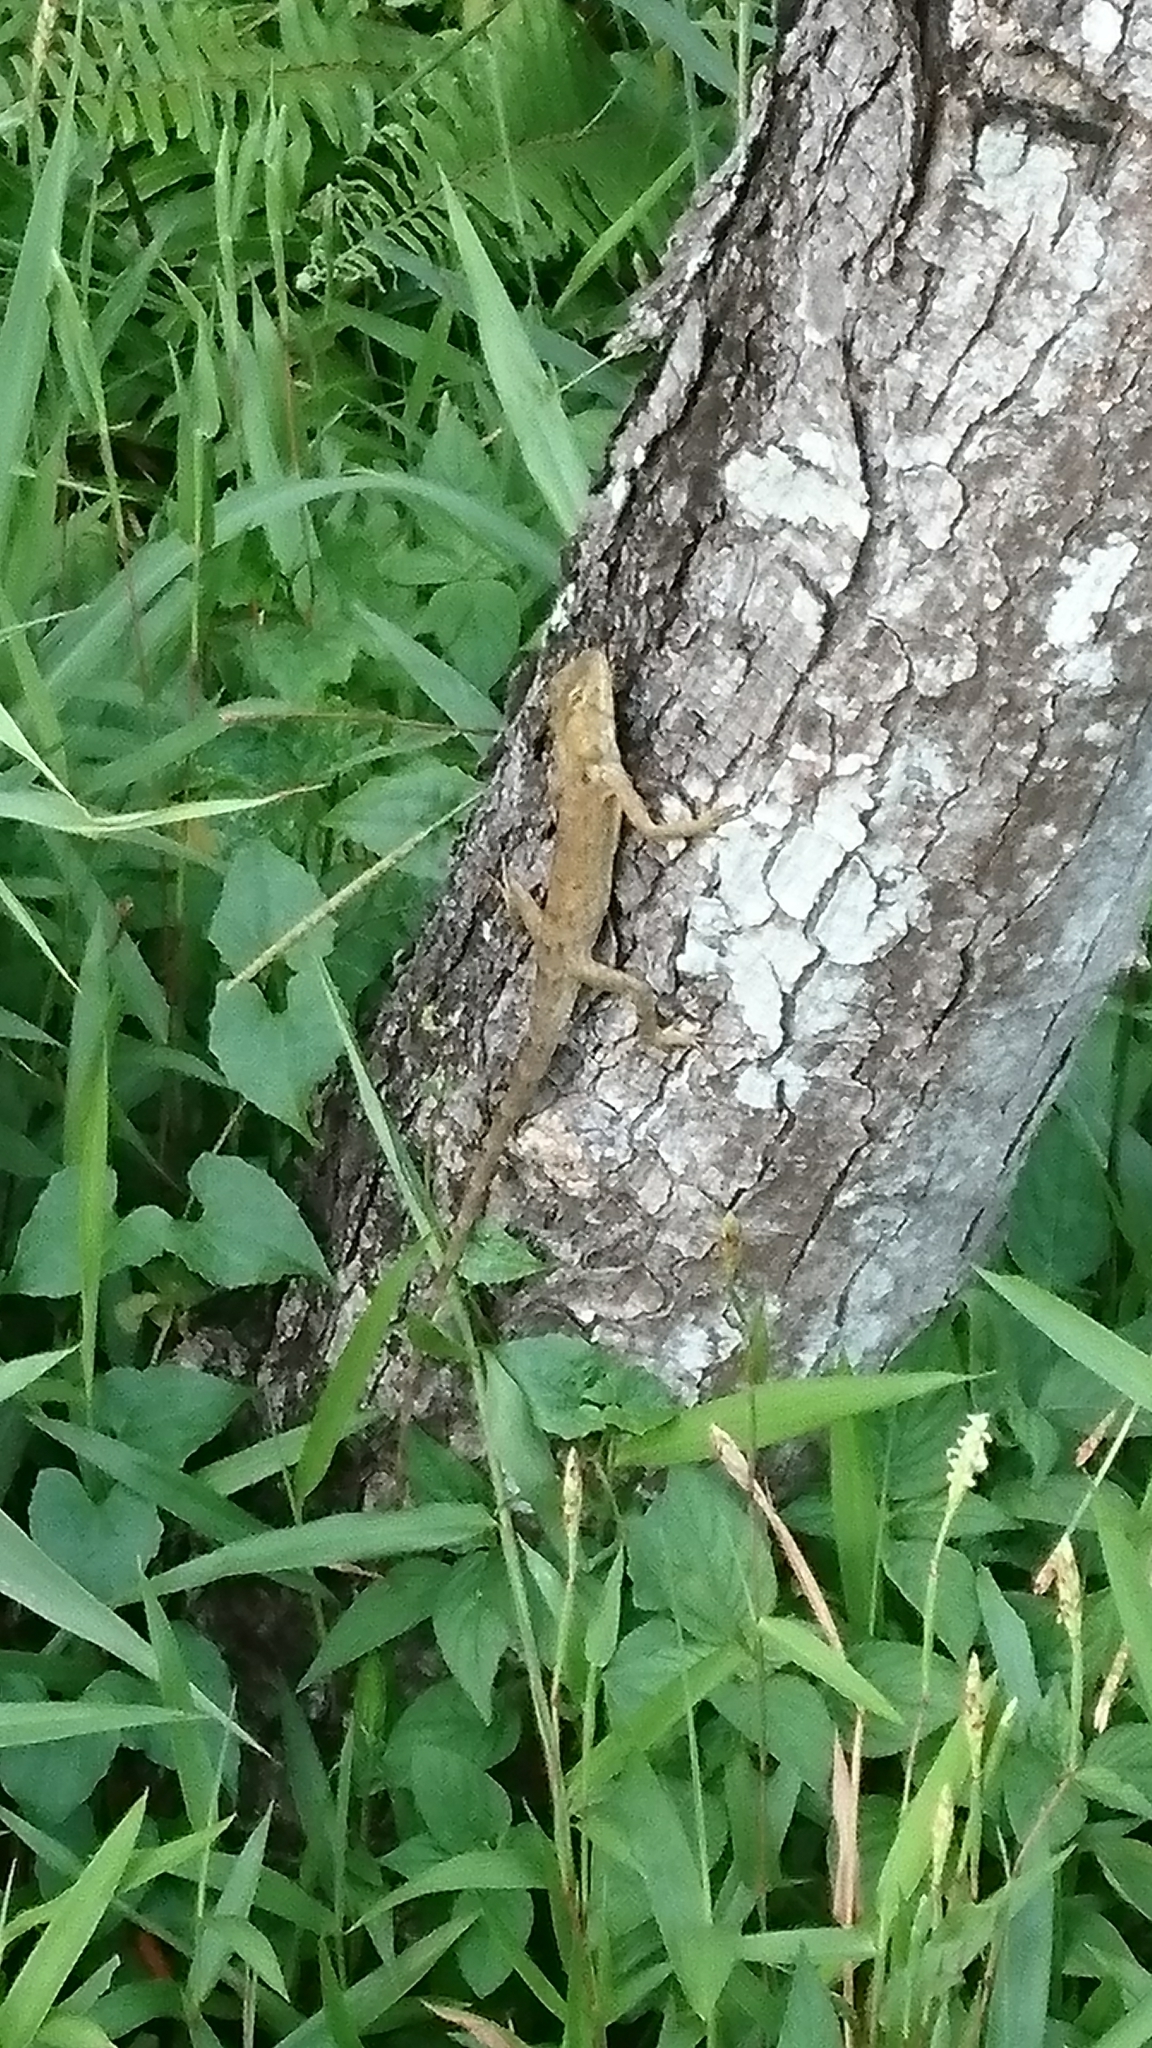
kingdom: Animalia
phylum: Chordata
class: Squamata
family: Agamidae
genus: Calotes
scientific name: Calotes versicolor
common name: Oriental garden lizard
